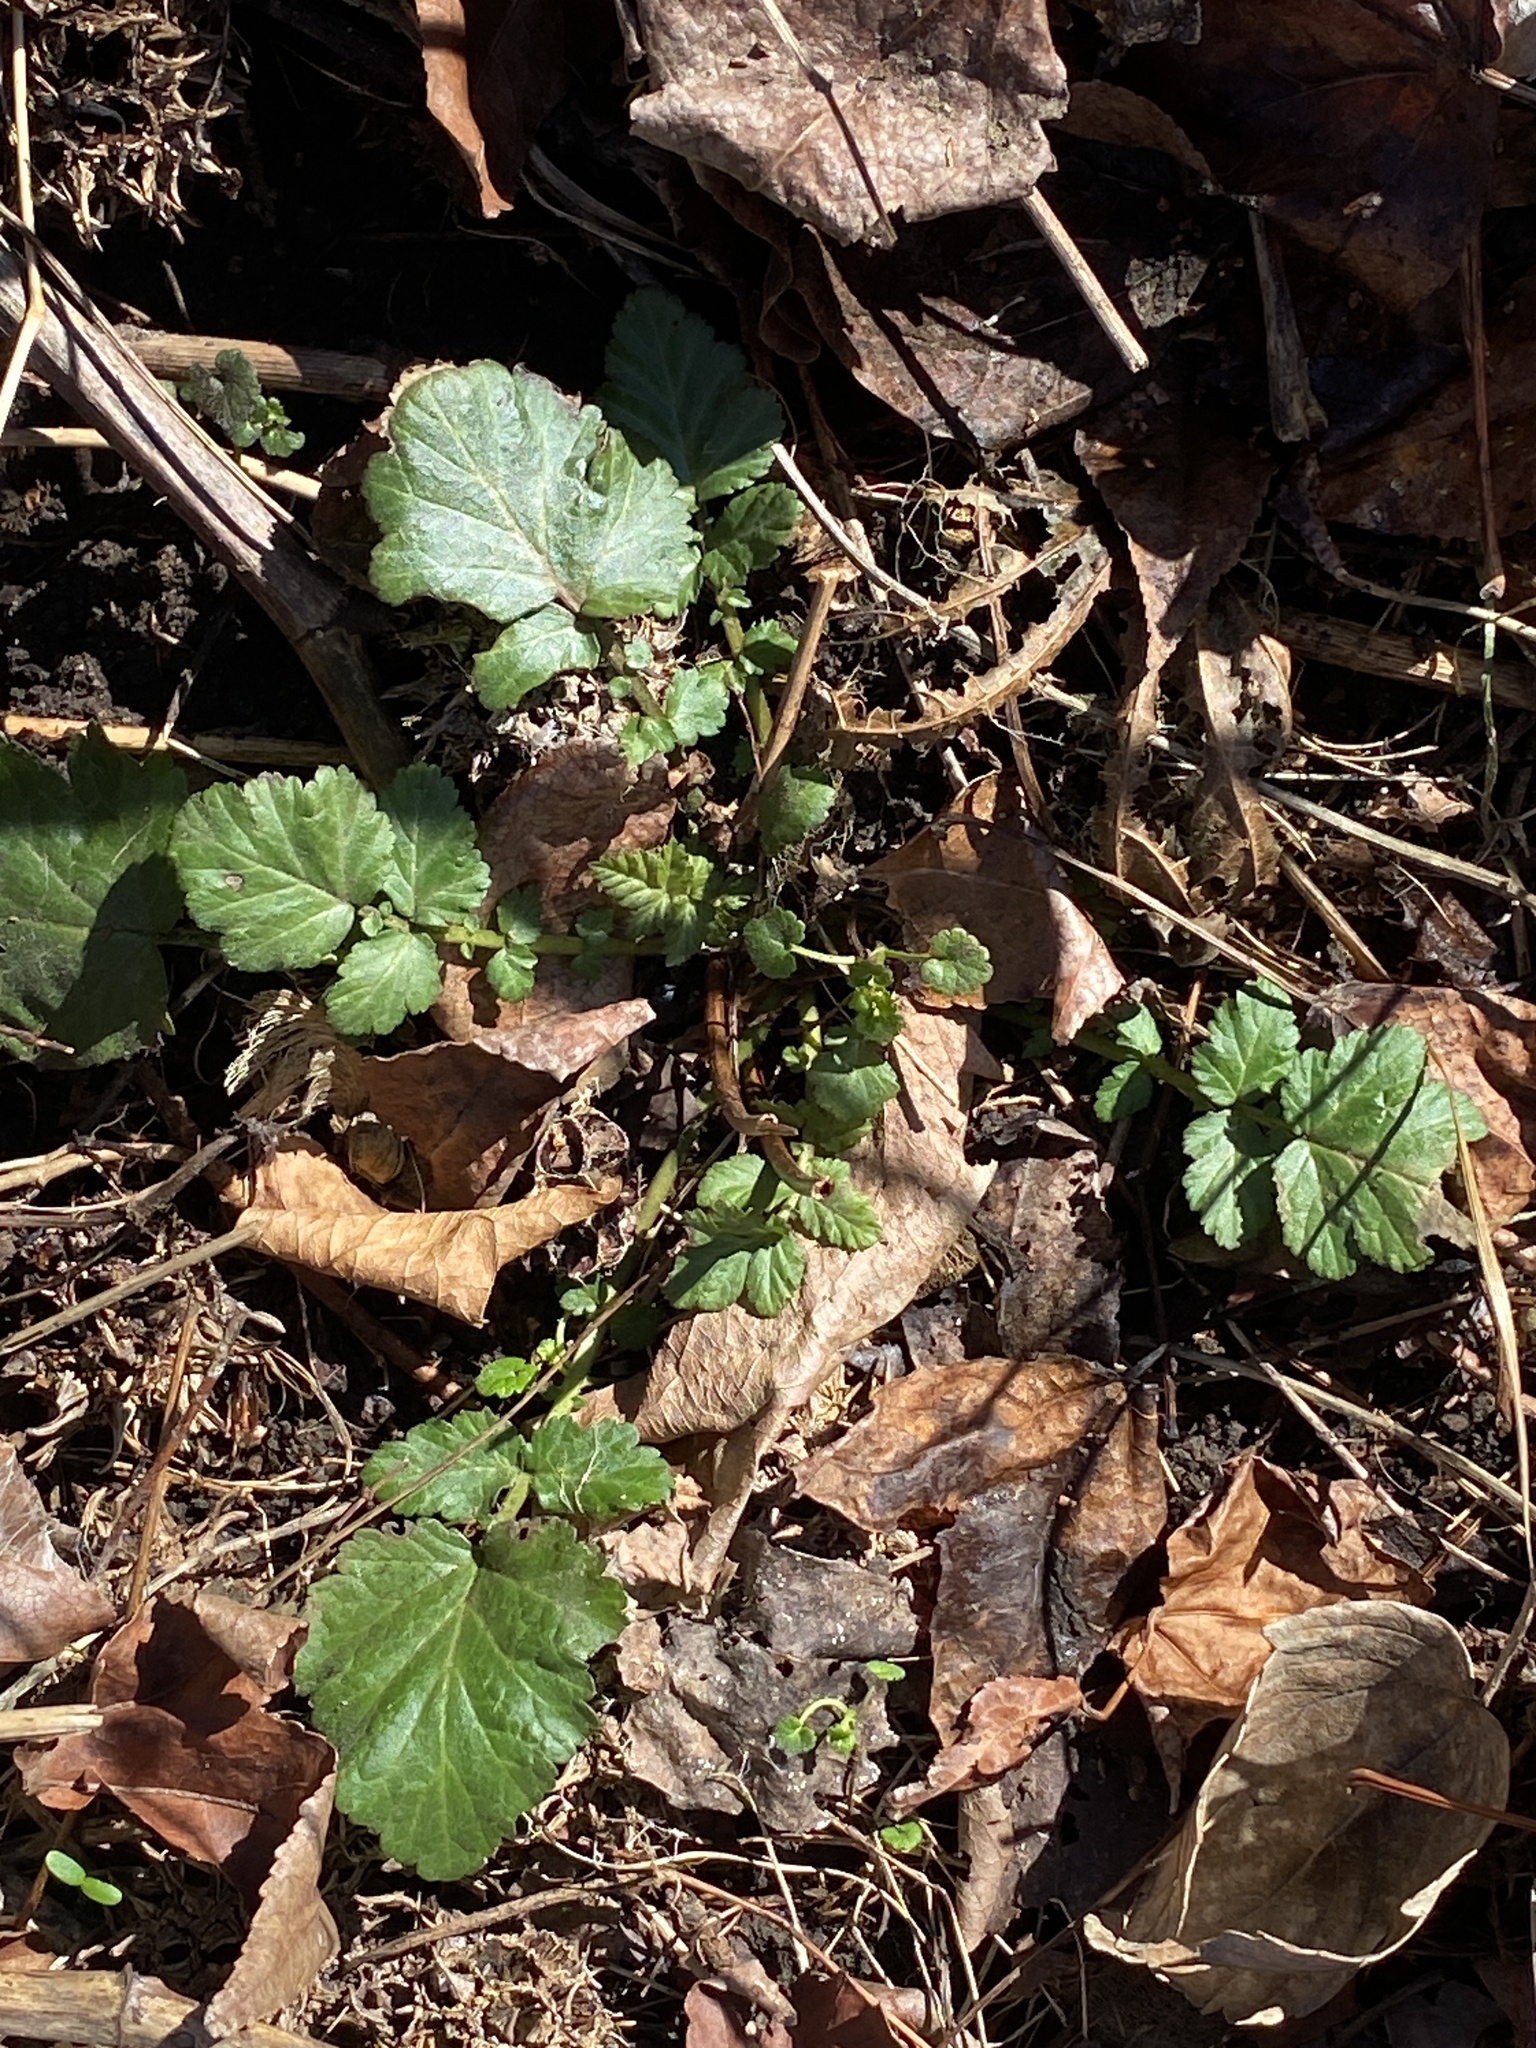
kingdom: Plantae
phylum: Tracheophyta
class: Magnoliopsida
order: Rosales
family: Rosaceae
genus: Geum
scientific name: Geum canadense
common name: White avens
